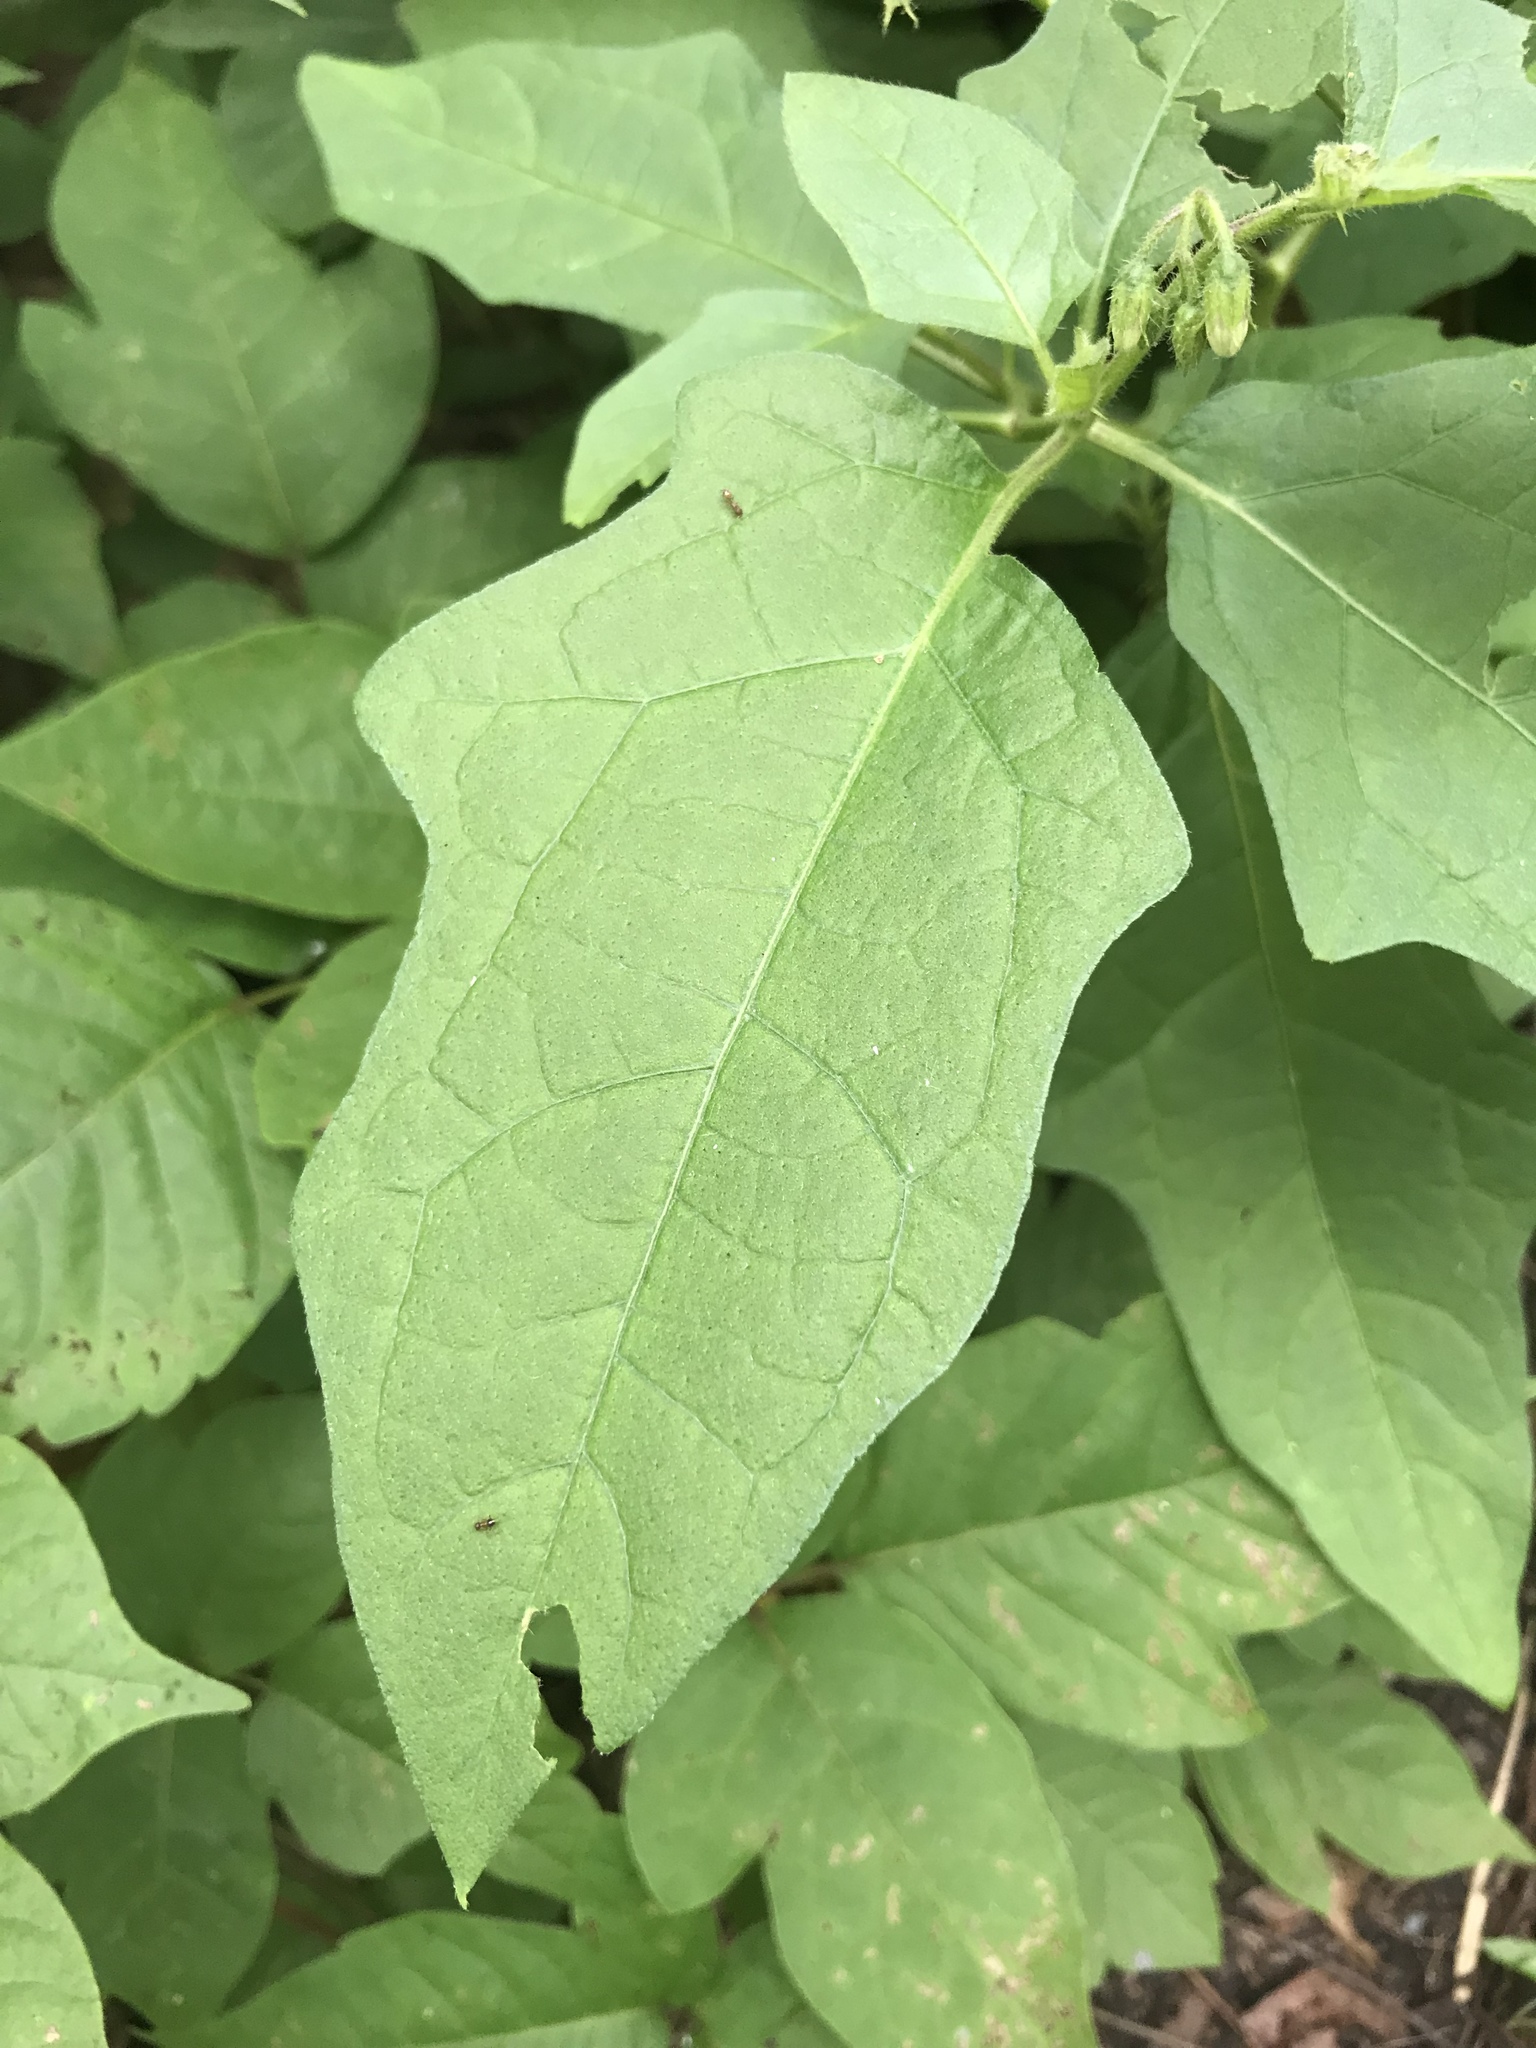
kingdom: Plantae
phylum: Tracheophyta
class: Magnoliopsida
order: Solanales
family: Solanaceae
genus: Solanum
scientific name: Solanum carolinense
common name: Horse-nettle
